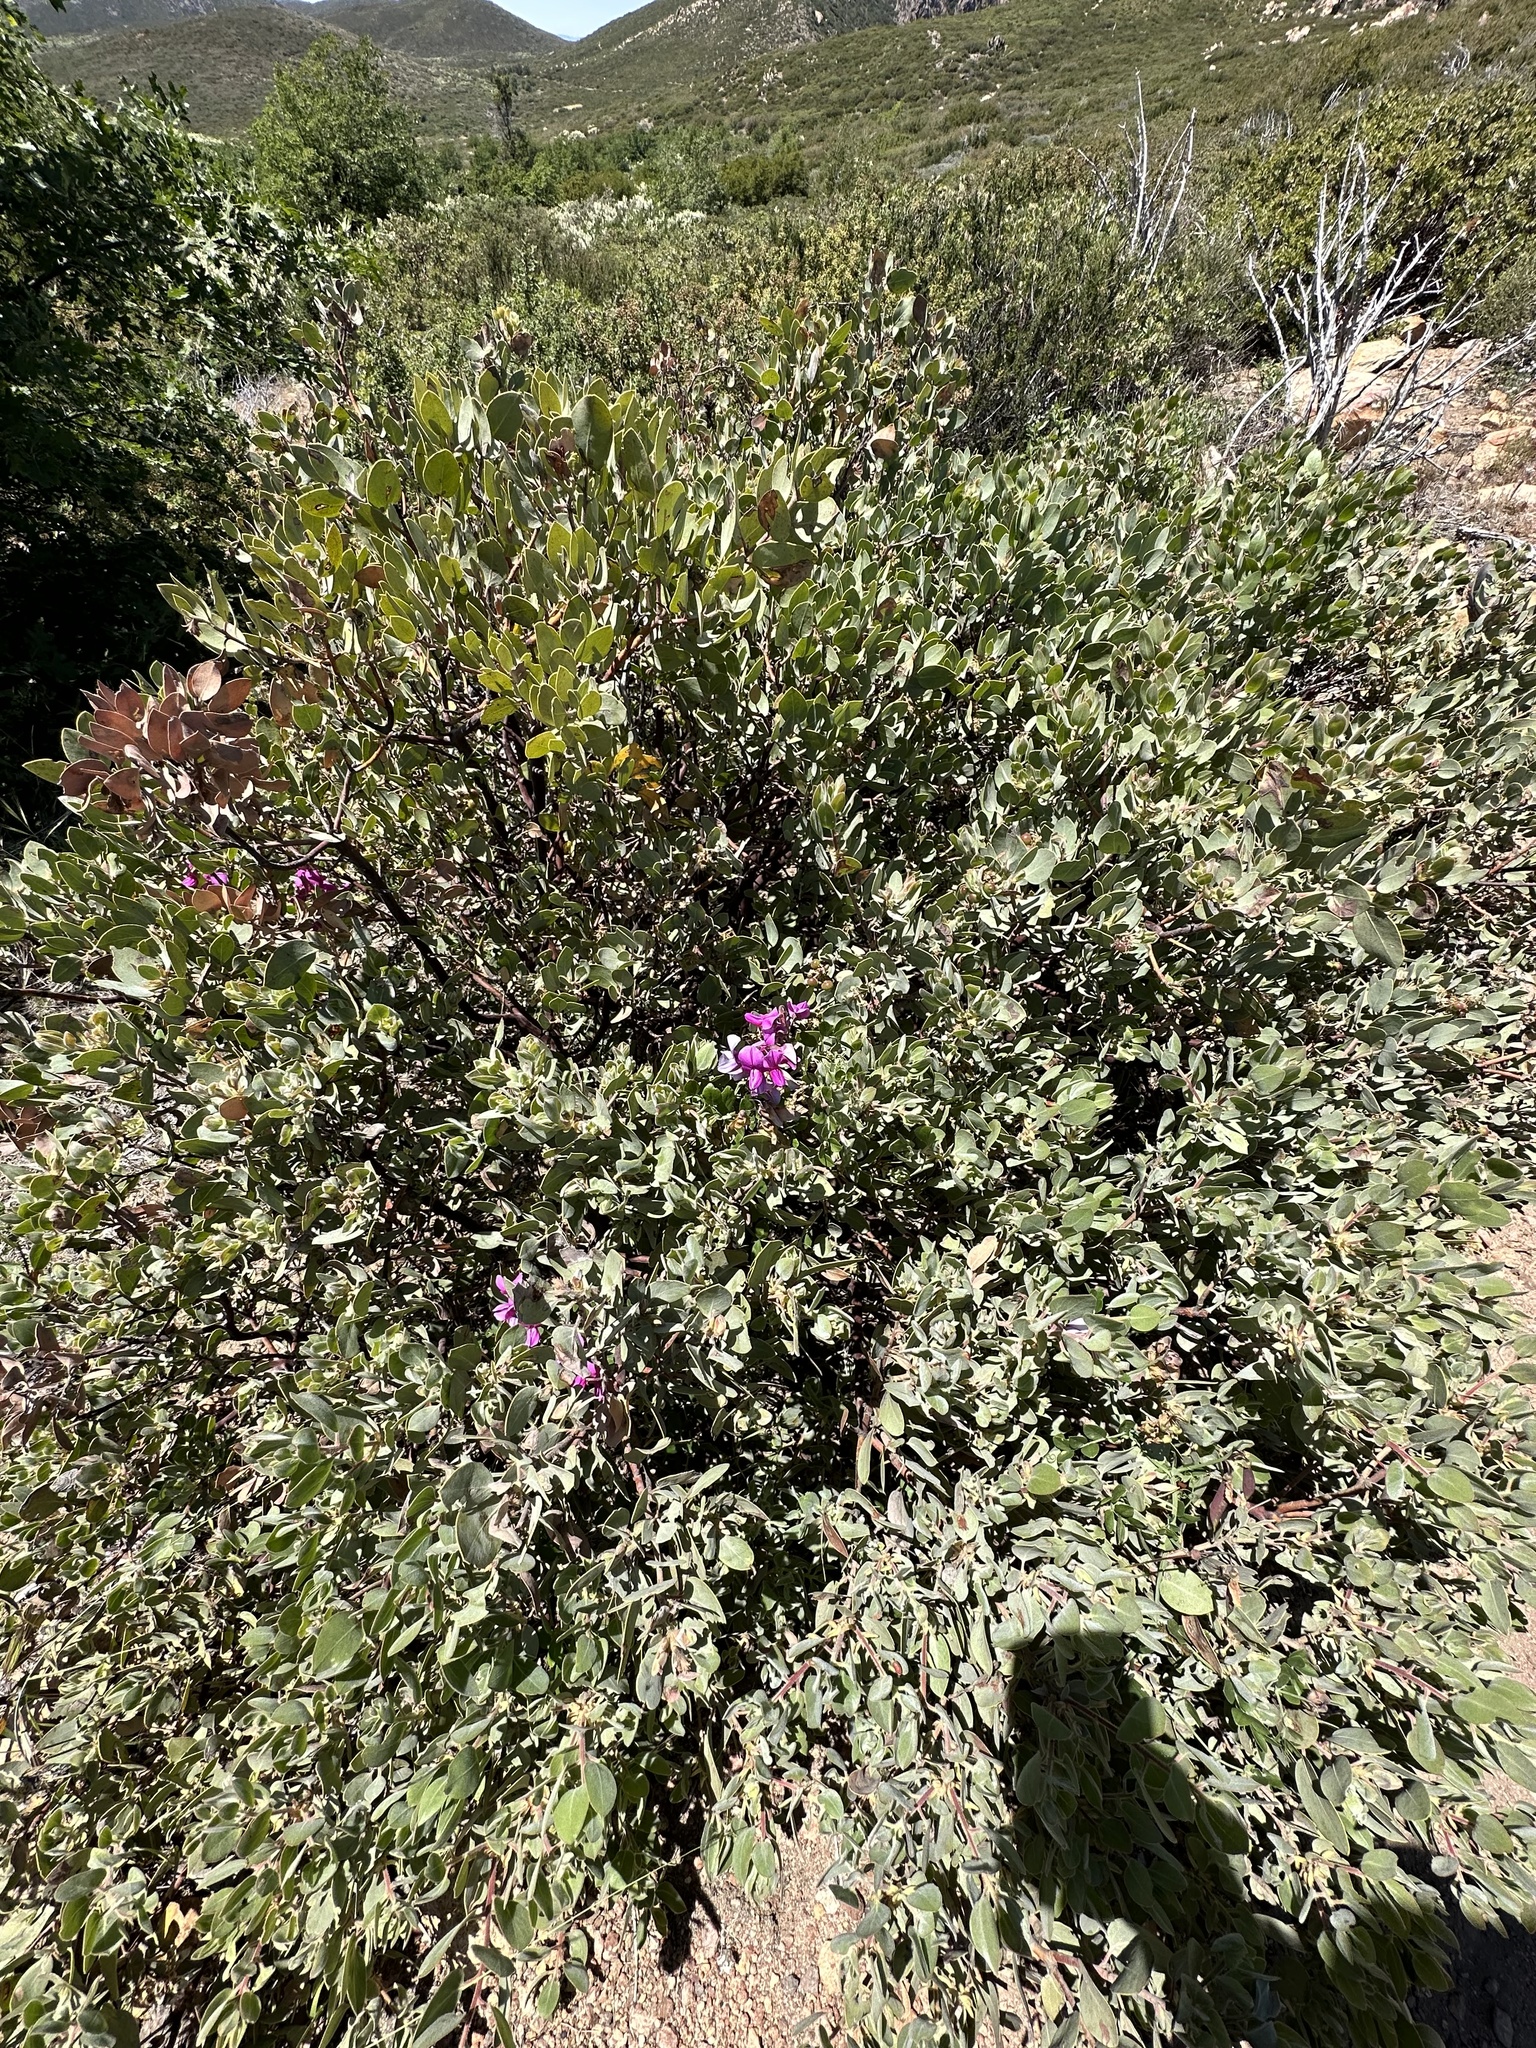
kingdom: Plantae
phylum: Tracheophyta
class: Magnoliopsida
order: Fabales
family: Fabaceae
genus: Lathyrus
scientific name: Lathyrus vestitus
